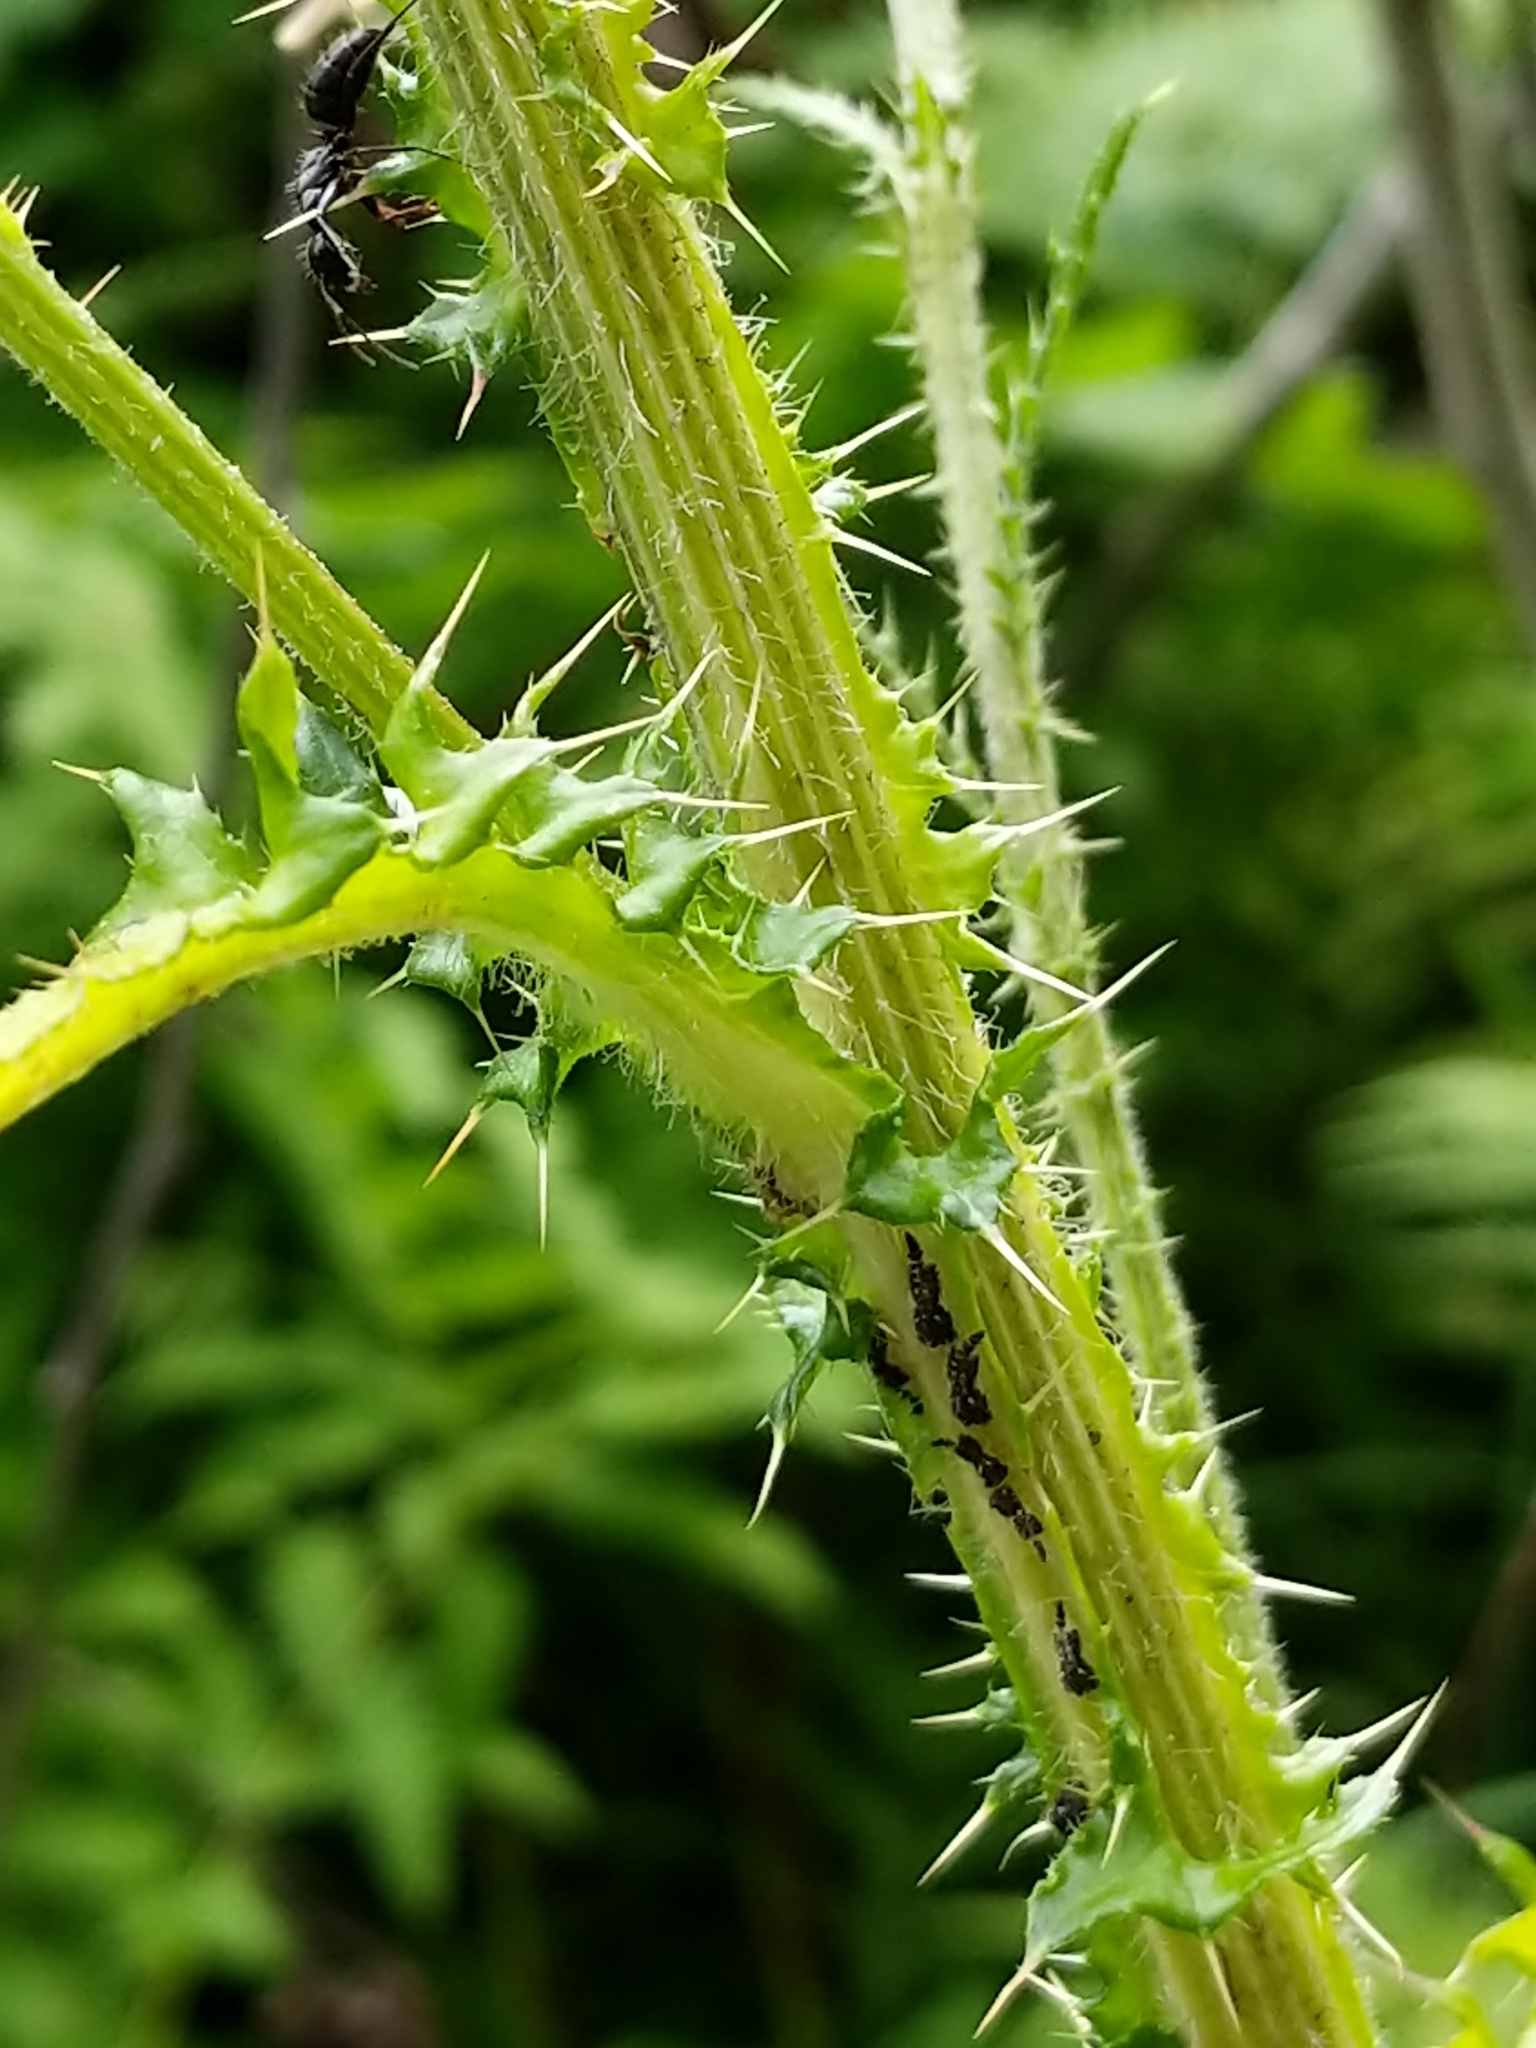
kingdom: Plantae
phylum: Tracheophyta
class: Magnoliopsida
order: Asterales
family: Asteraceae
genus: Cirsium
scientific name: Cirsium palustre
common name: Marsh thistle
